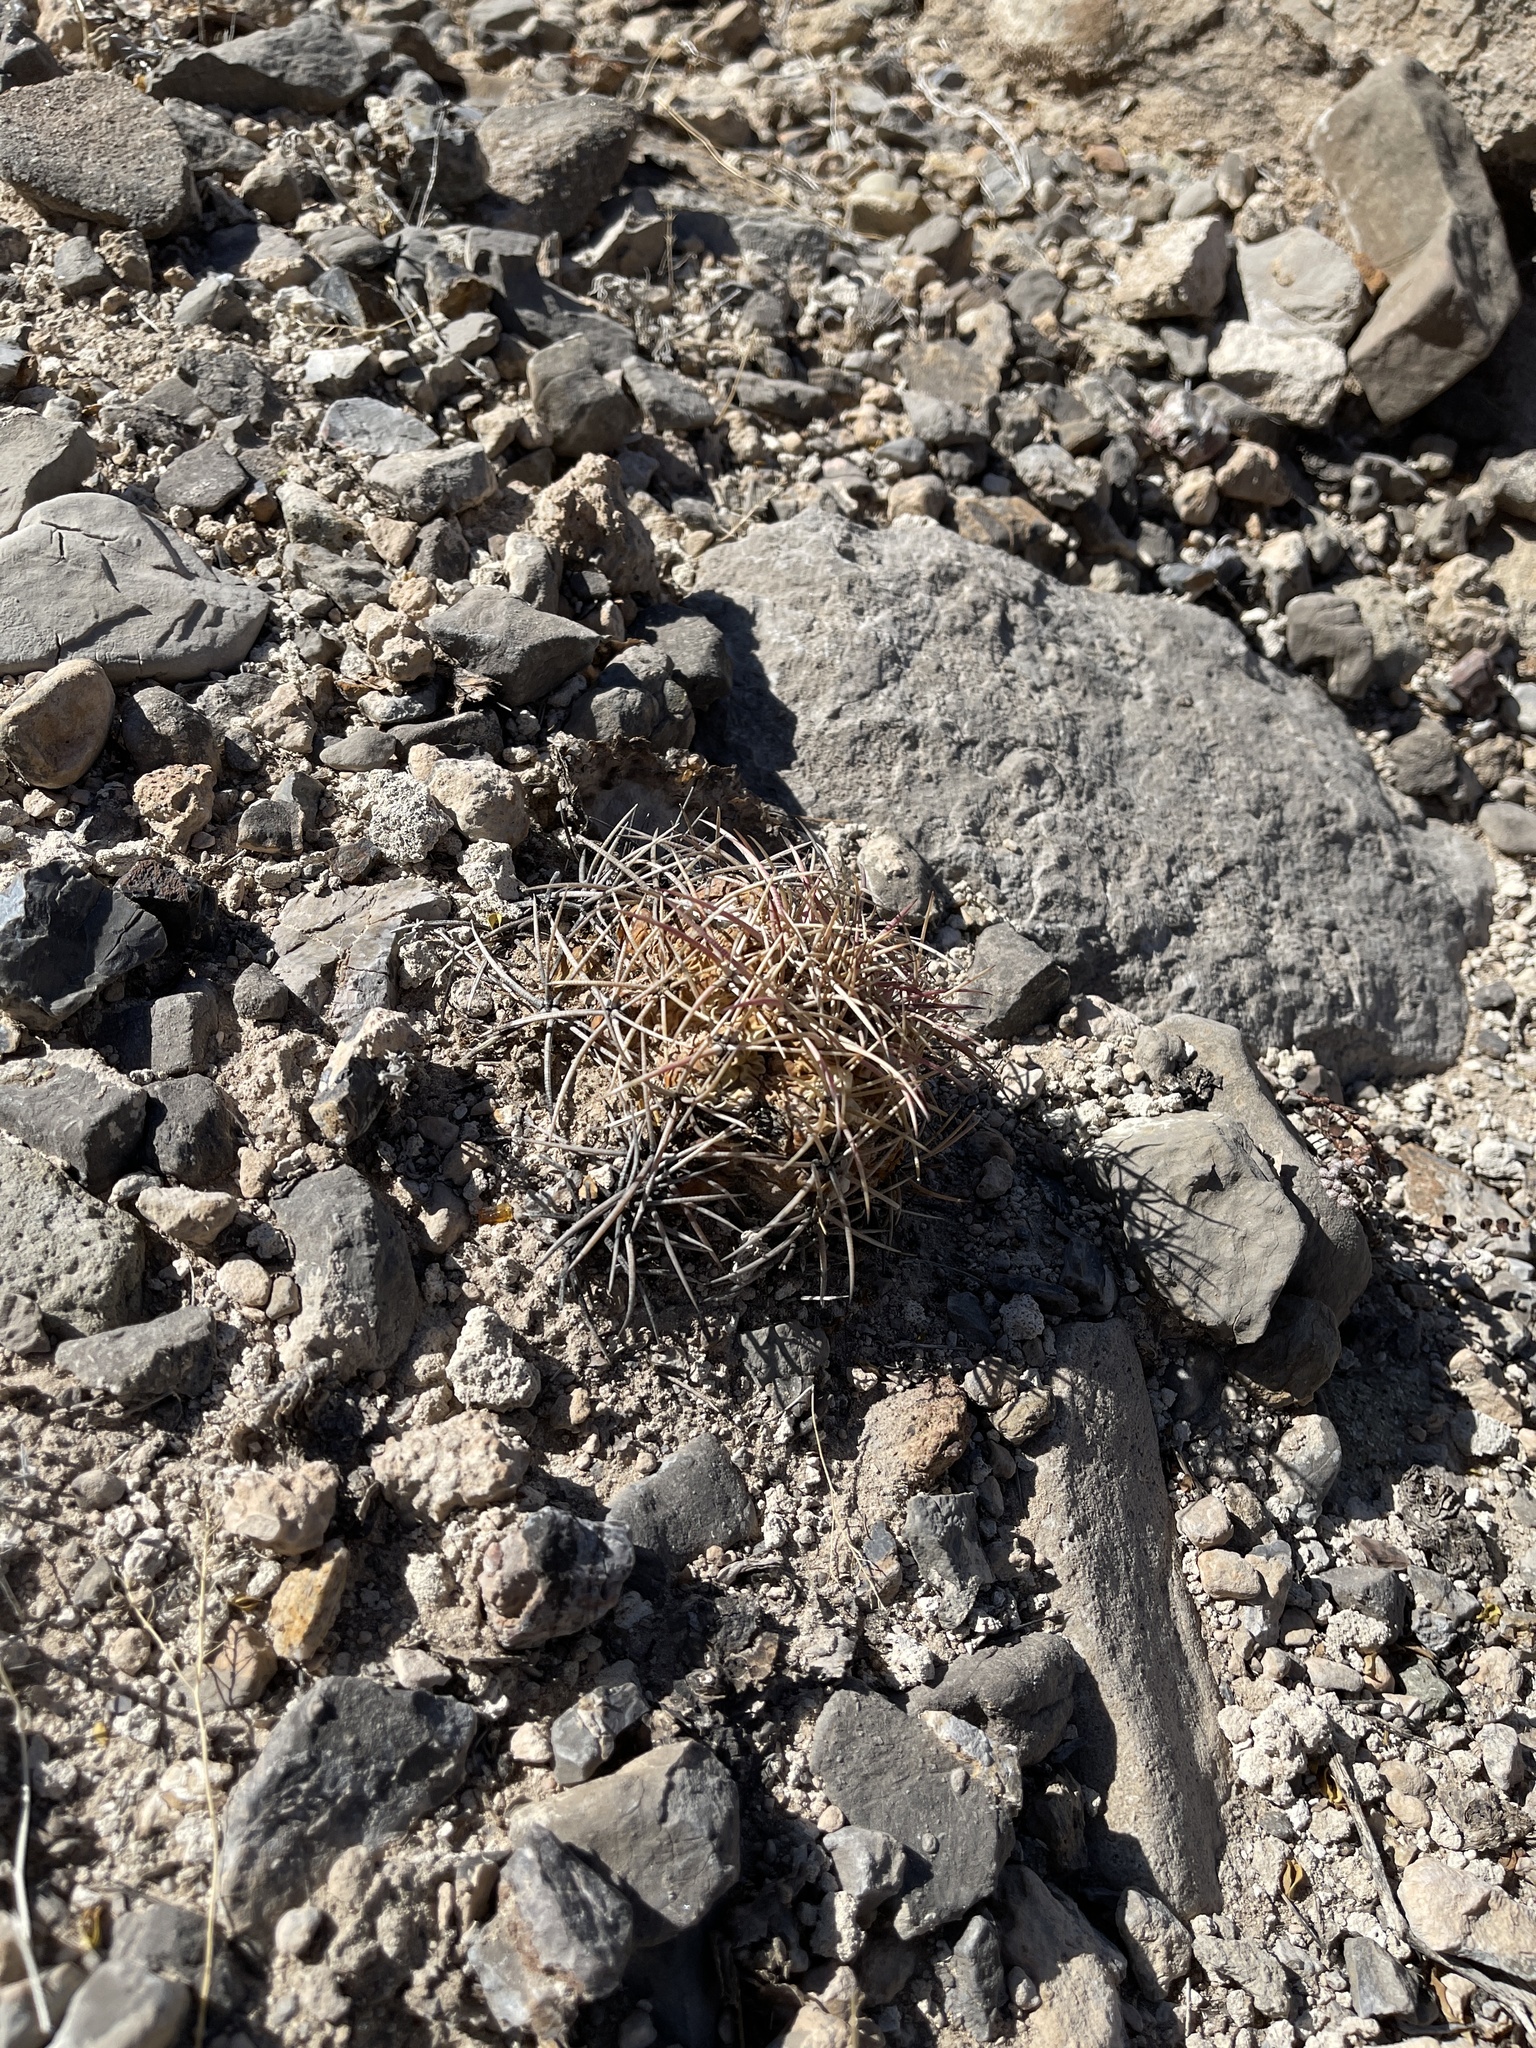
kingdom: Plantae
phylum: Tracheophyta
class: Magnoliopsida
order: Caryophyllales
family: Cactaceae
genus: Echinocactus
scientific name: Echinocactus horizonthalonius
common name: Devilshead
